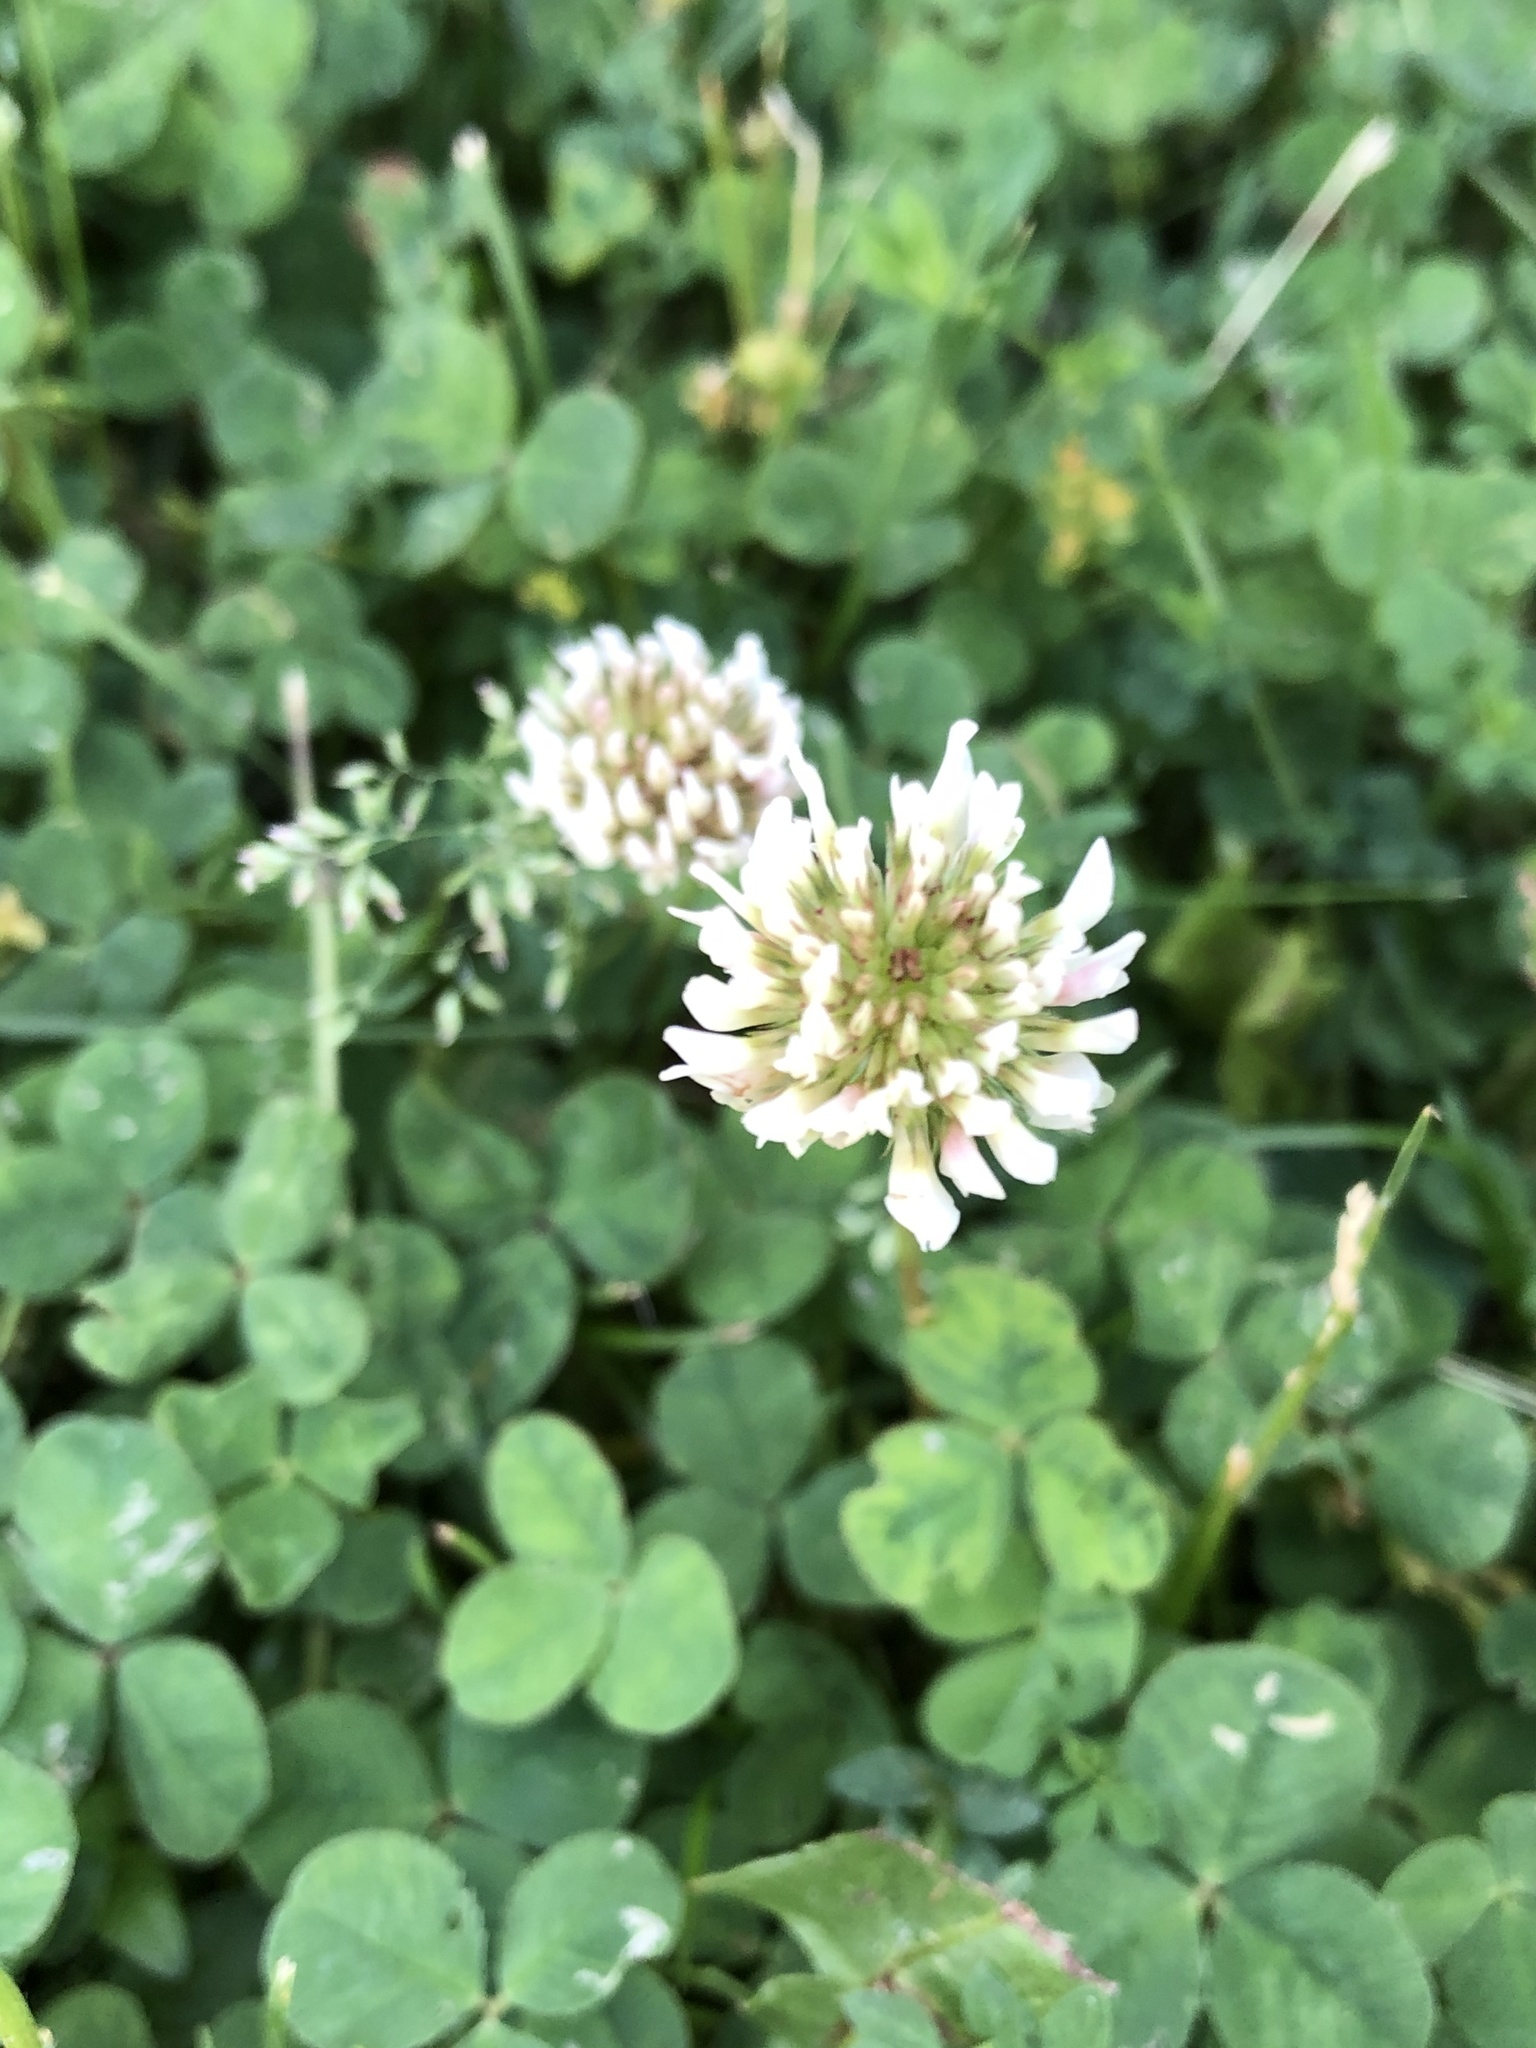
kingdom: Plantae
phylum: Tracheophyta
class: Magnoliopsida
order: Fabales
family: Fabaceae
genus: Trifolium
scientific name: Trifolium repens
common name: White clover
